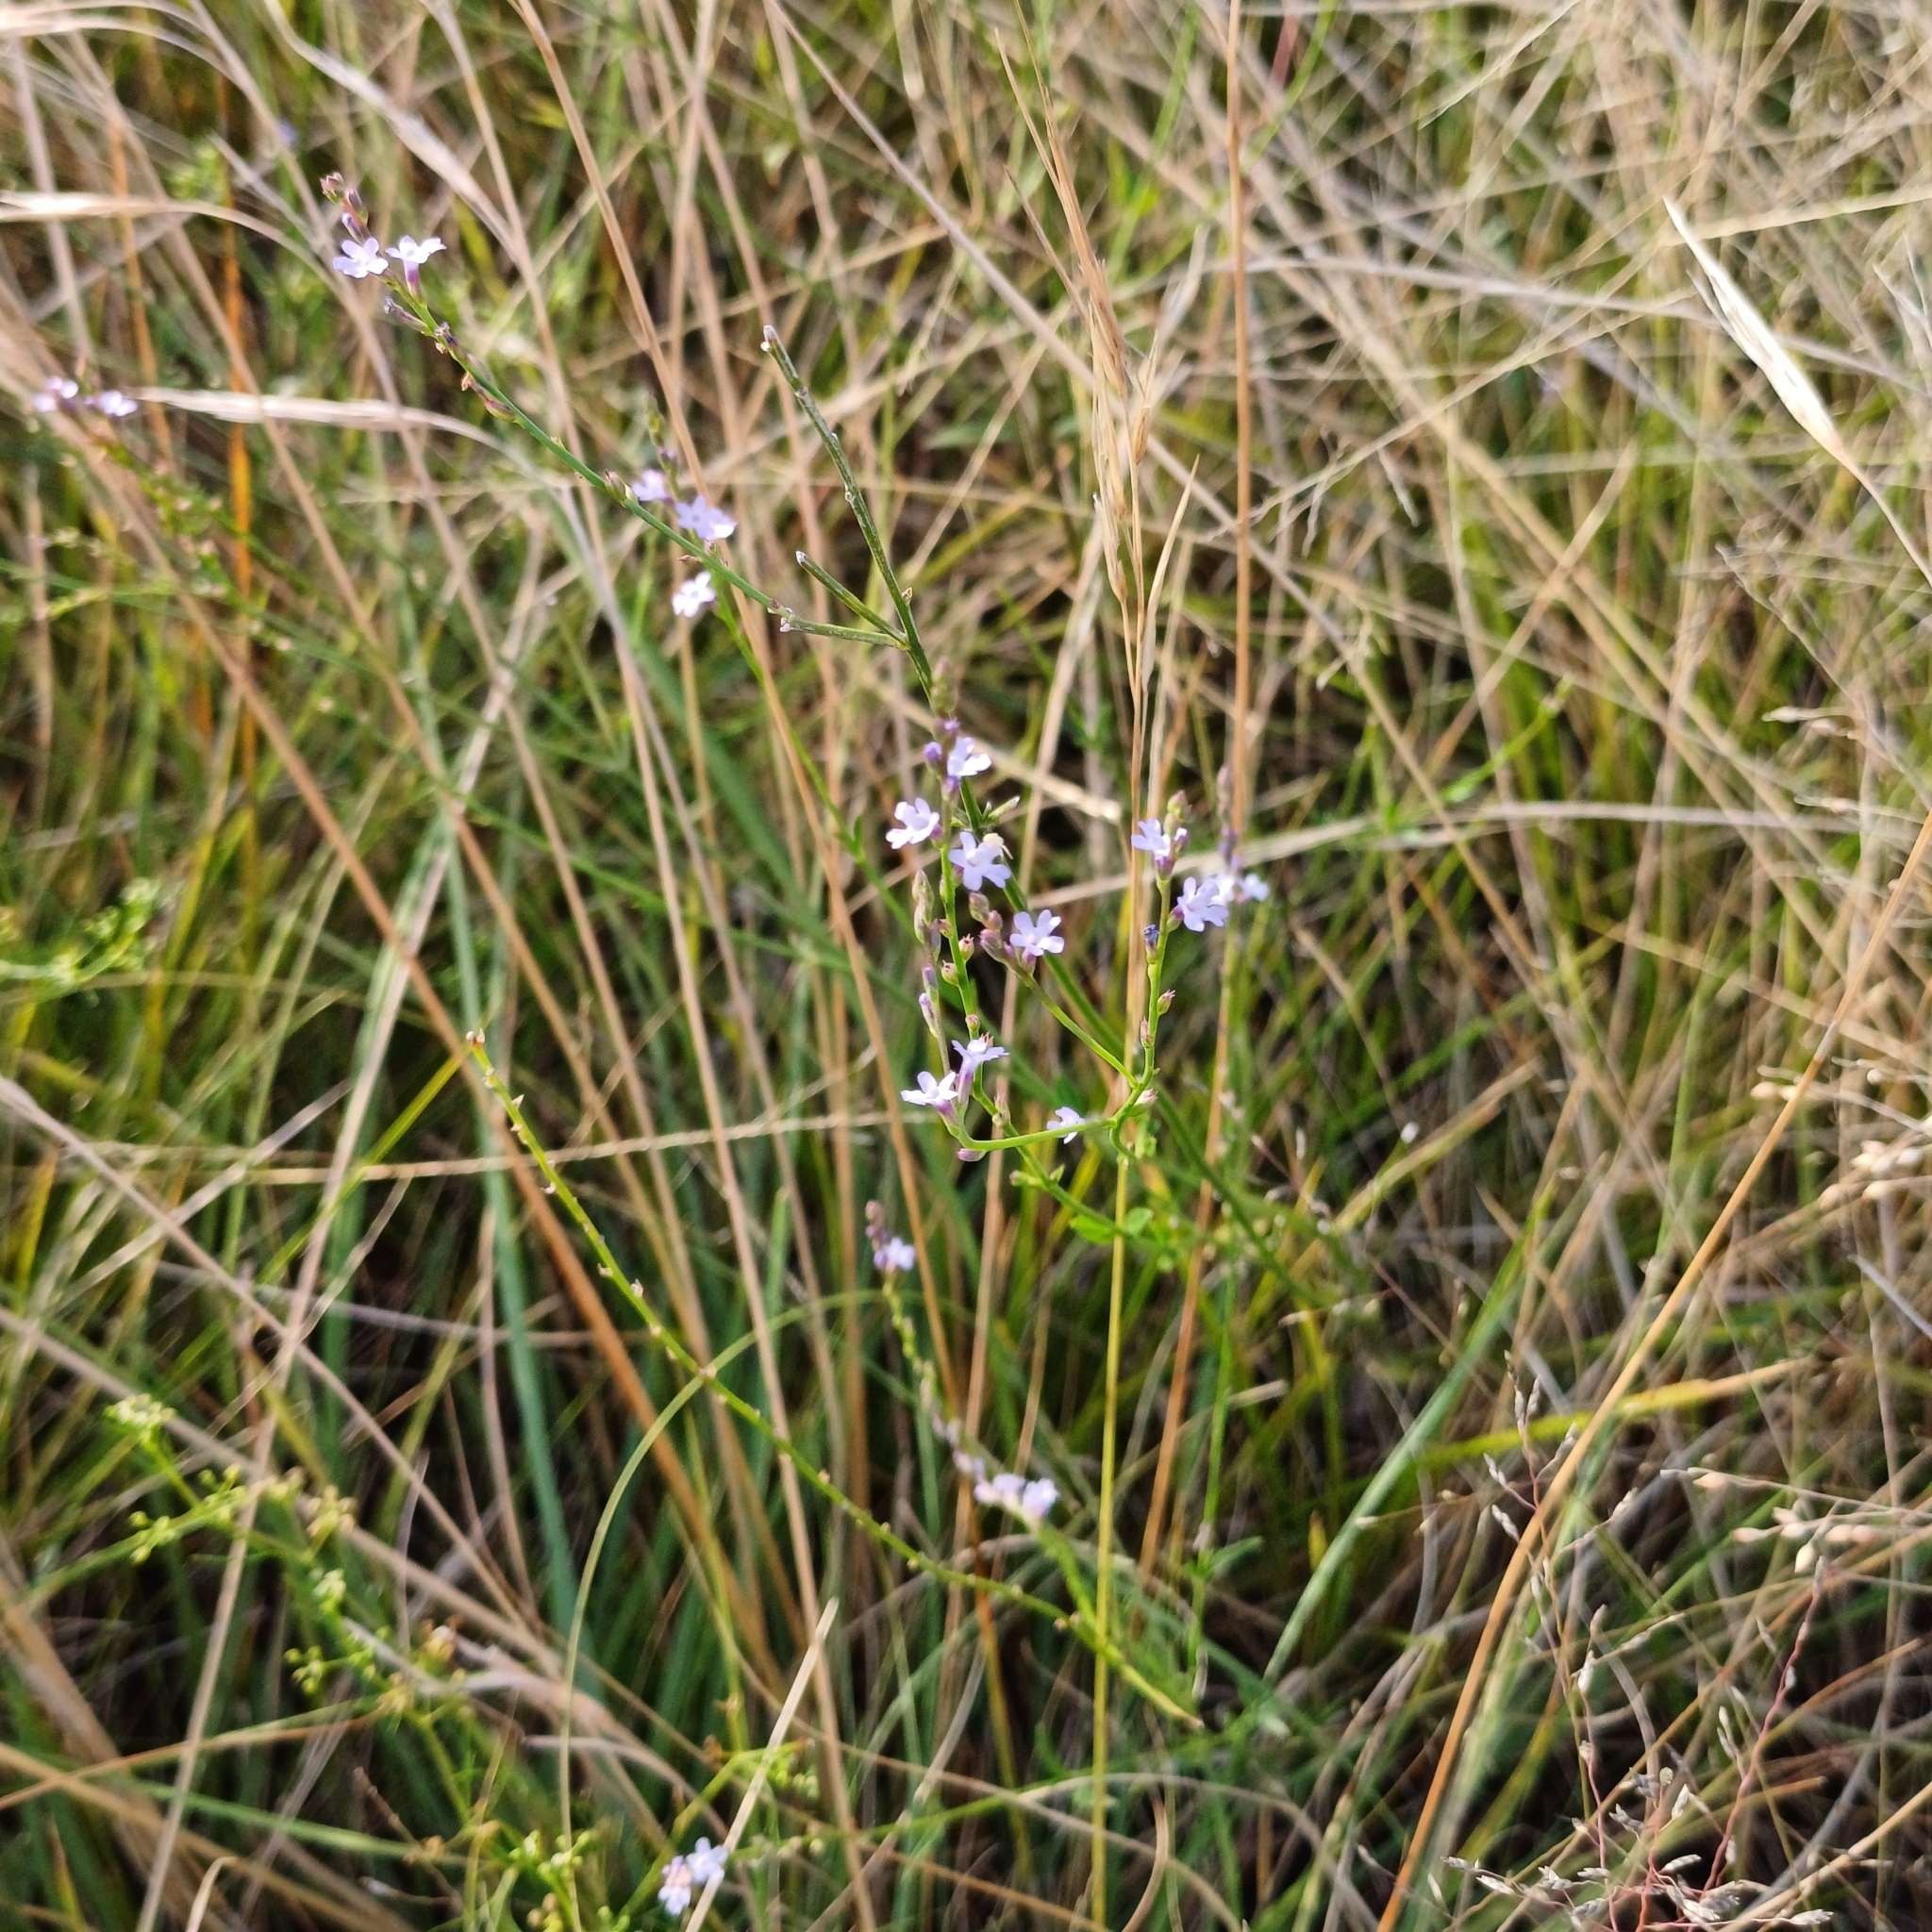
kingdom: Plantae
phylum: Tracheophyta
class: Magnoliopsida
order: Lamiales
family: Verbenaceae
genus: Verbena
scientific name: Verbena gracilescens
